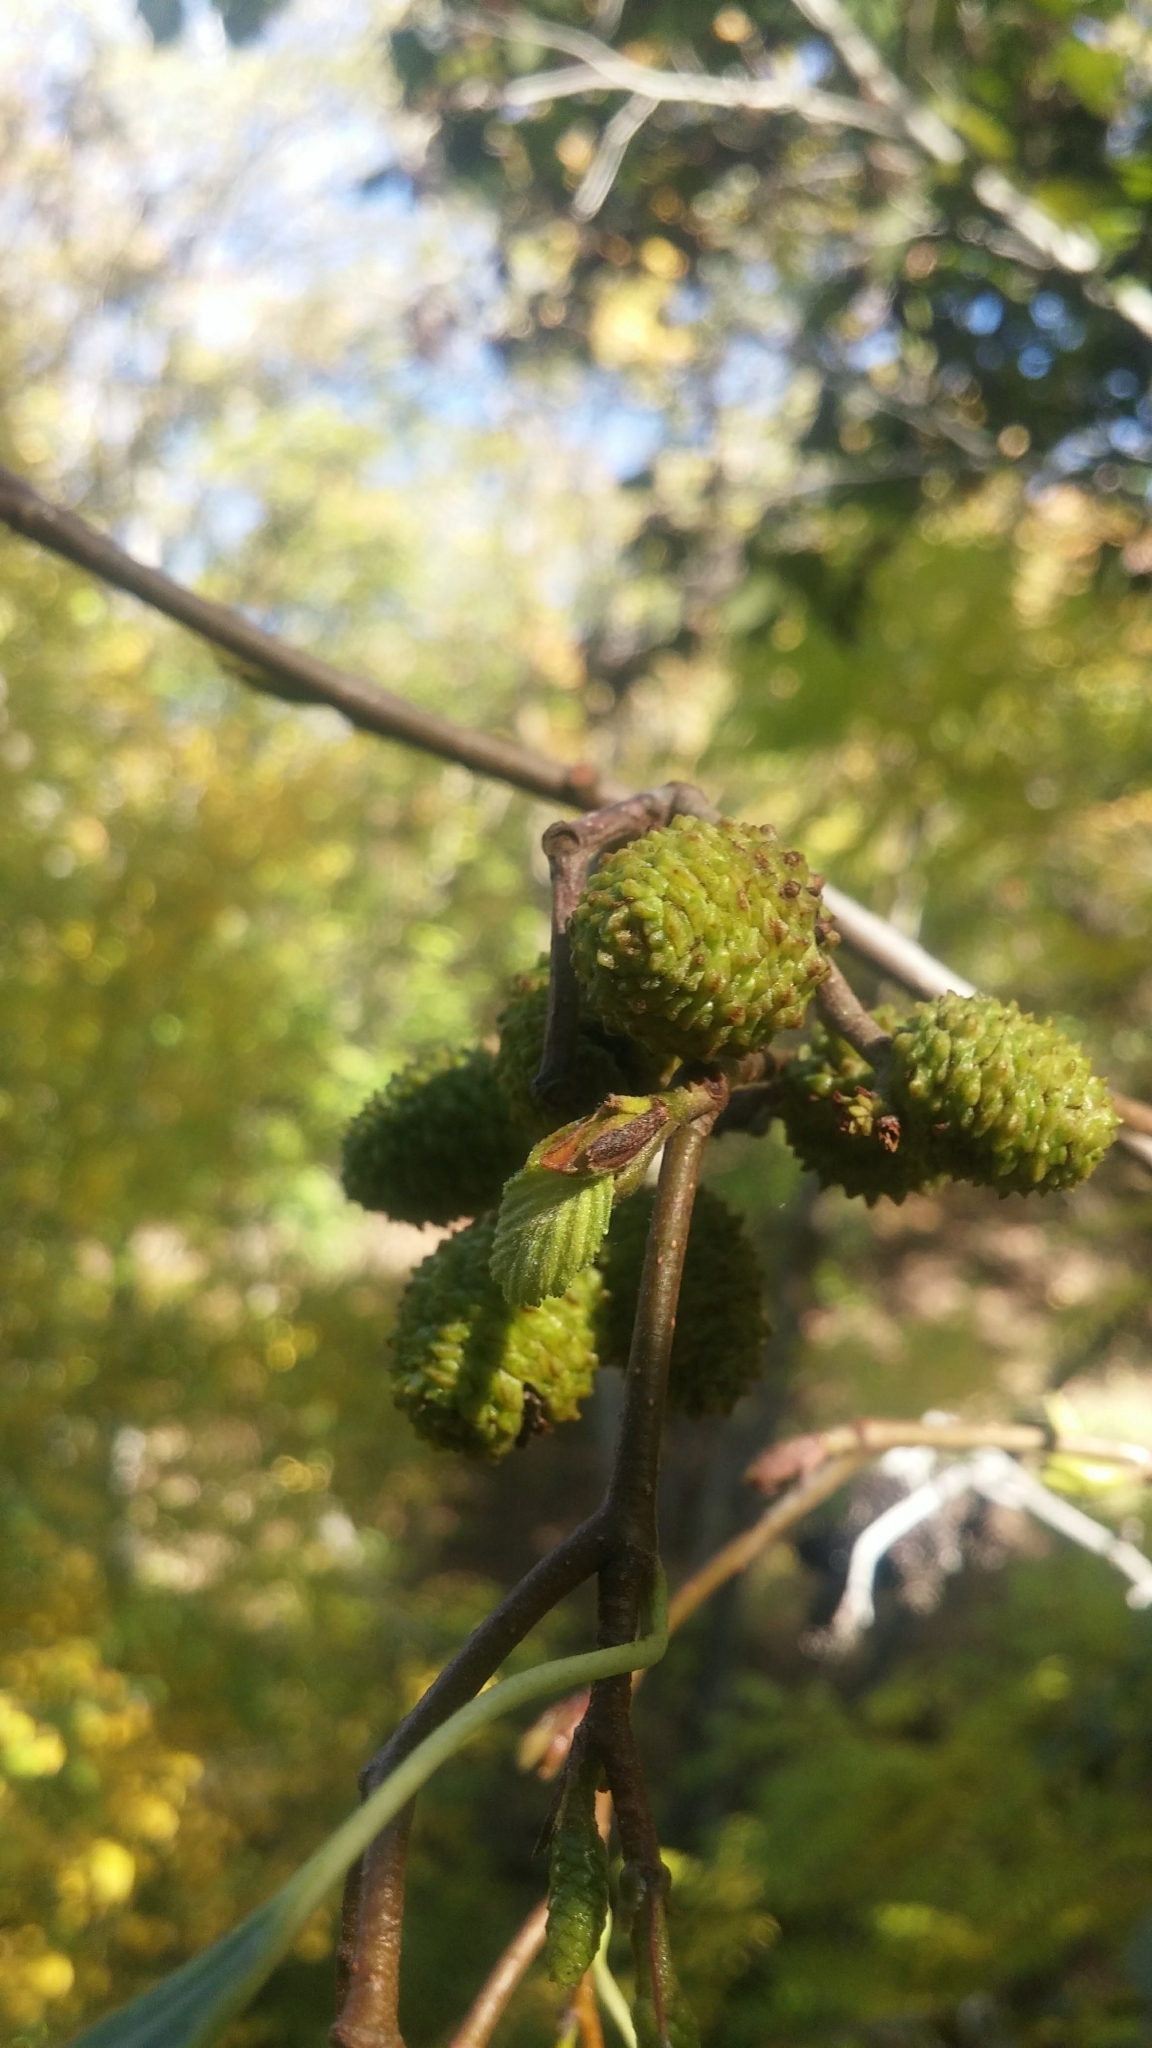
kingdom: Plantae
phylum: Tracheophyta
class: Magnoliopsida
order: Fagales
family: Betulaceae
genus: Alnus
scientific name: Alnus incana
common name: Grey alder
